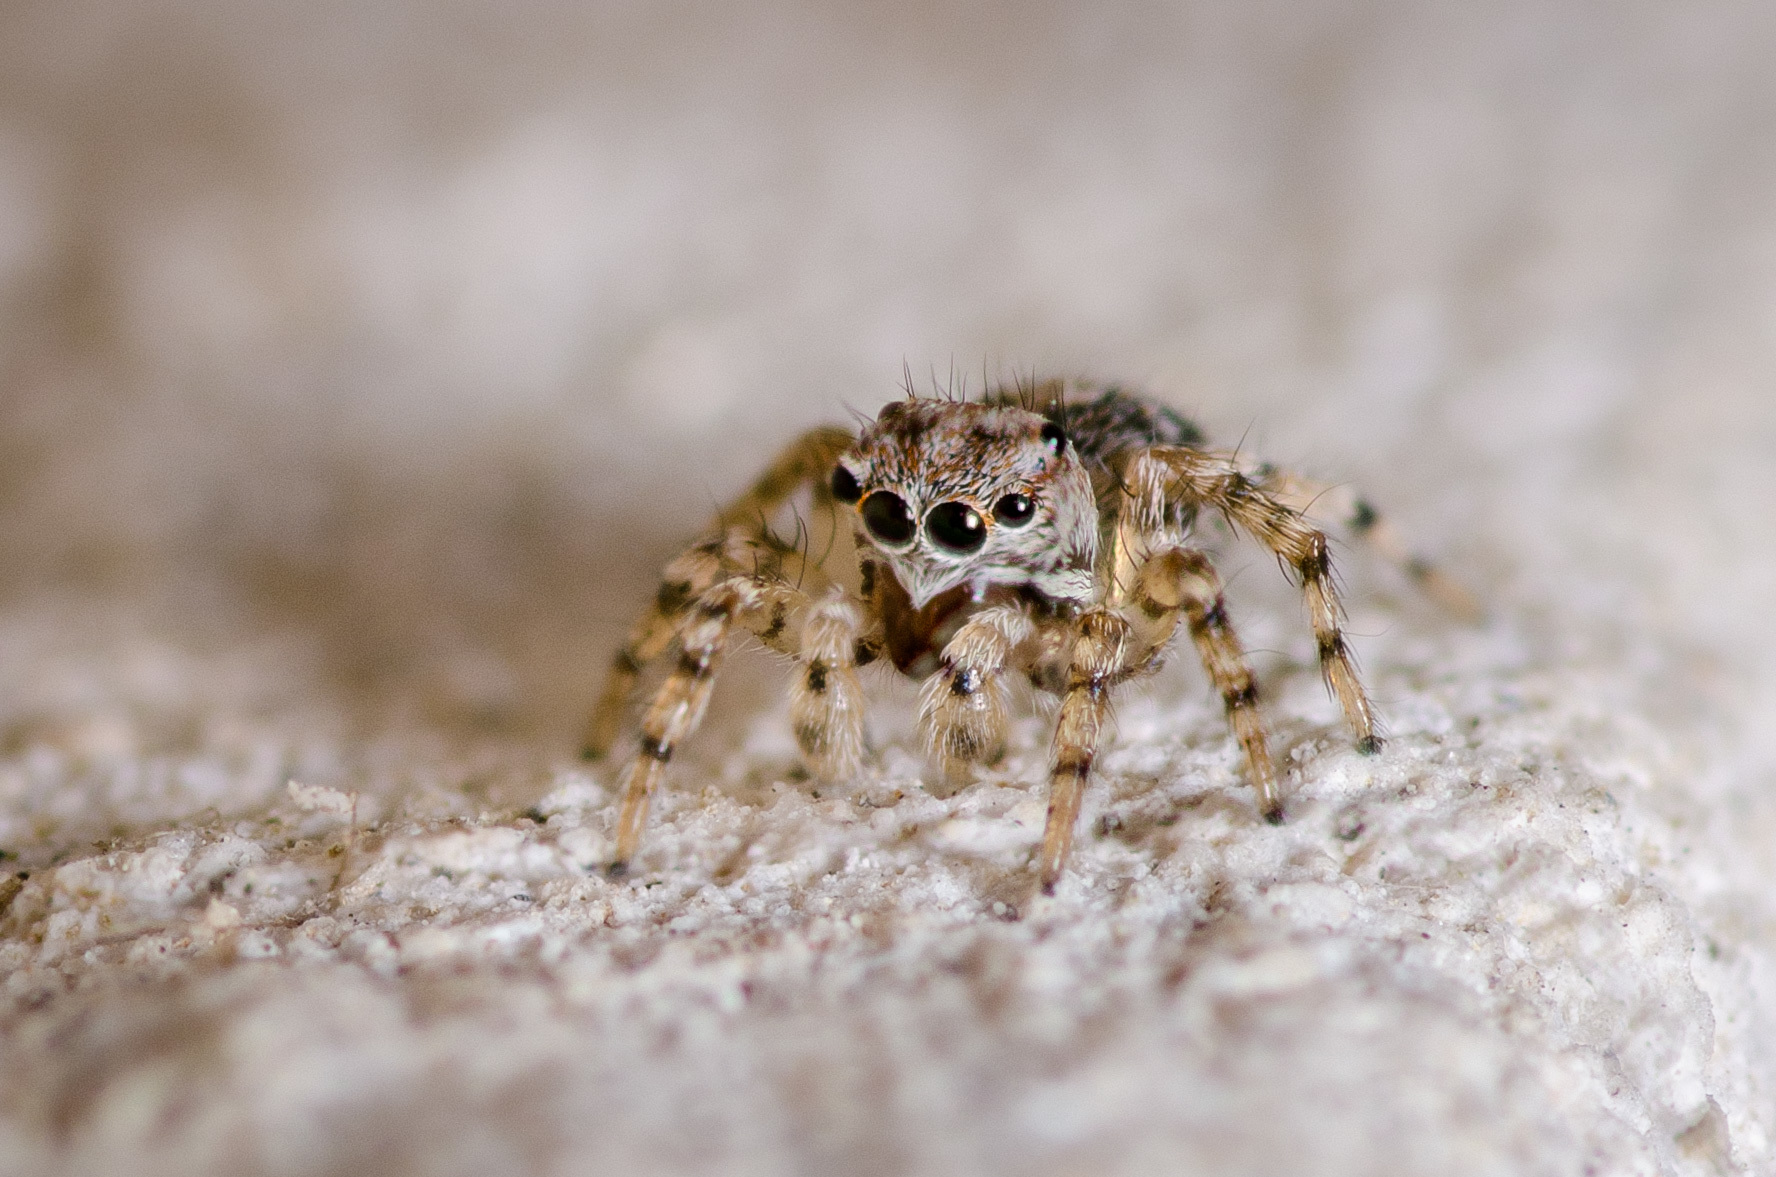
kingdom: Animalia
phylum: Arthropoda
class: Arachnida
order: Araneae
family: Salticidae
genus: Naphrys
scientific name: Naphrys pulex
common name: Flea jumping spider
